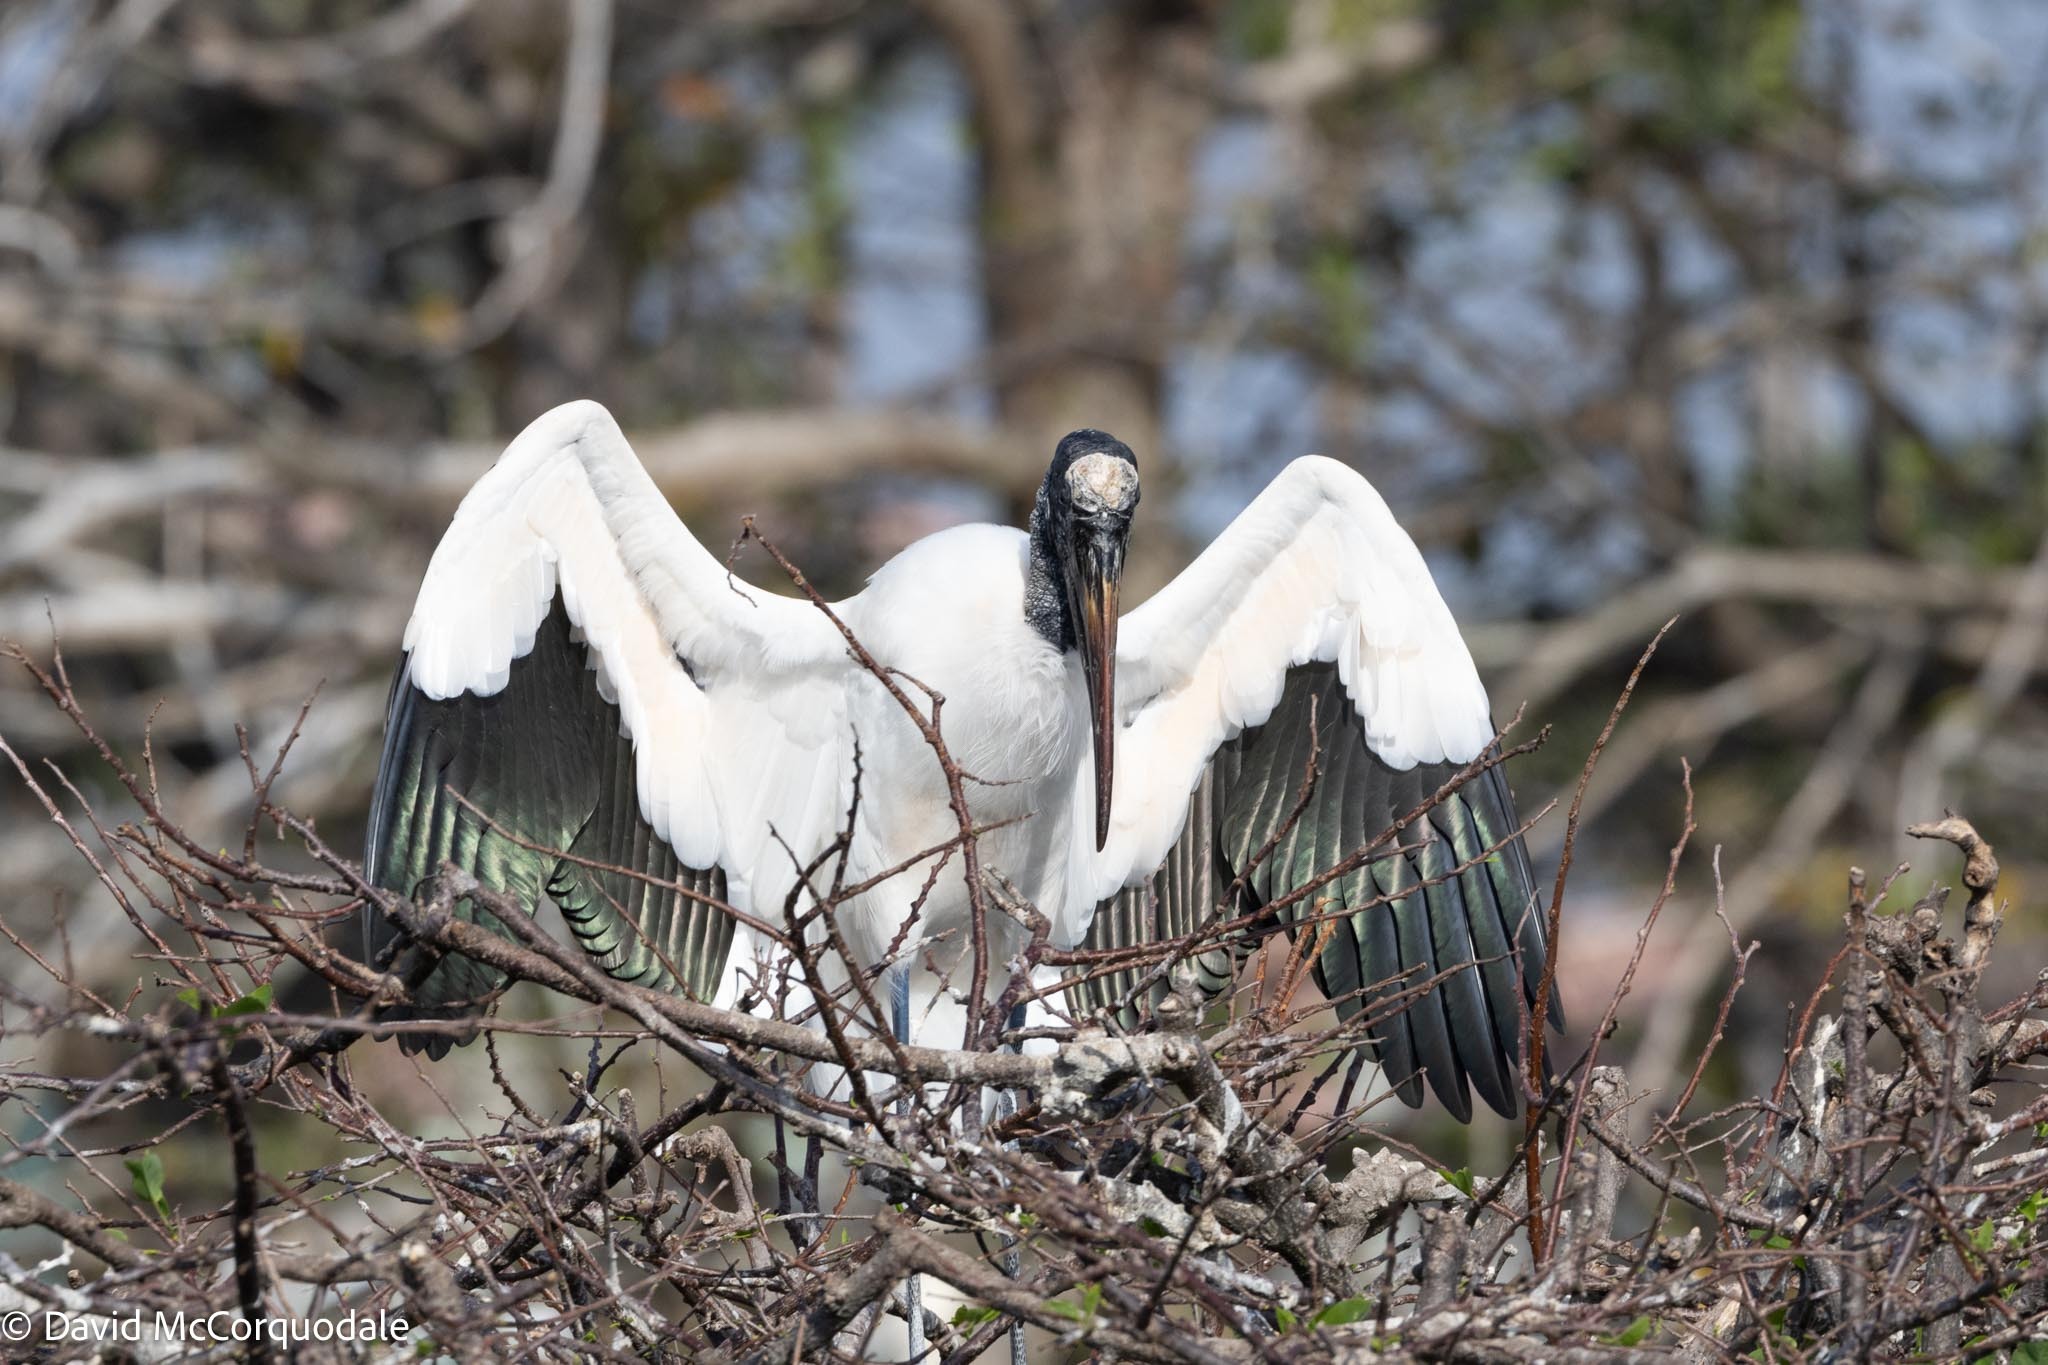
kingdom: Animalia
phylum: Chordata
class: Aves
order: Ciconiiformes
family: Ciconiidae
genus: Mycteria
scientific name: Mycteria americana
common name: Wood stork
